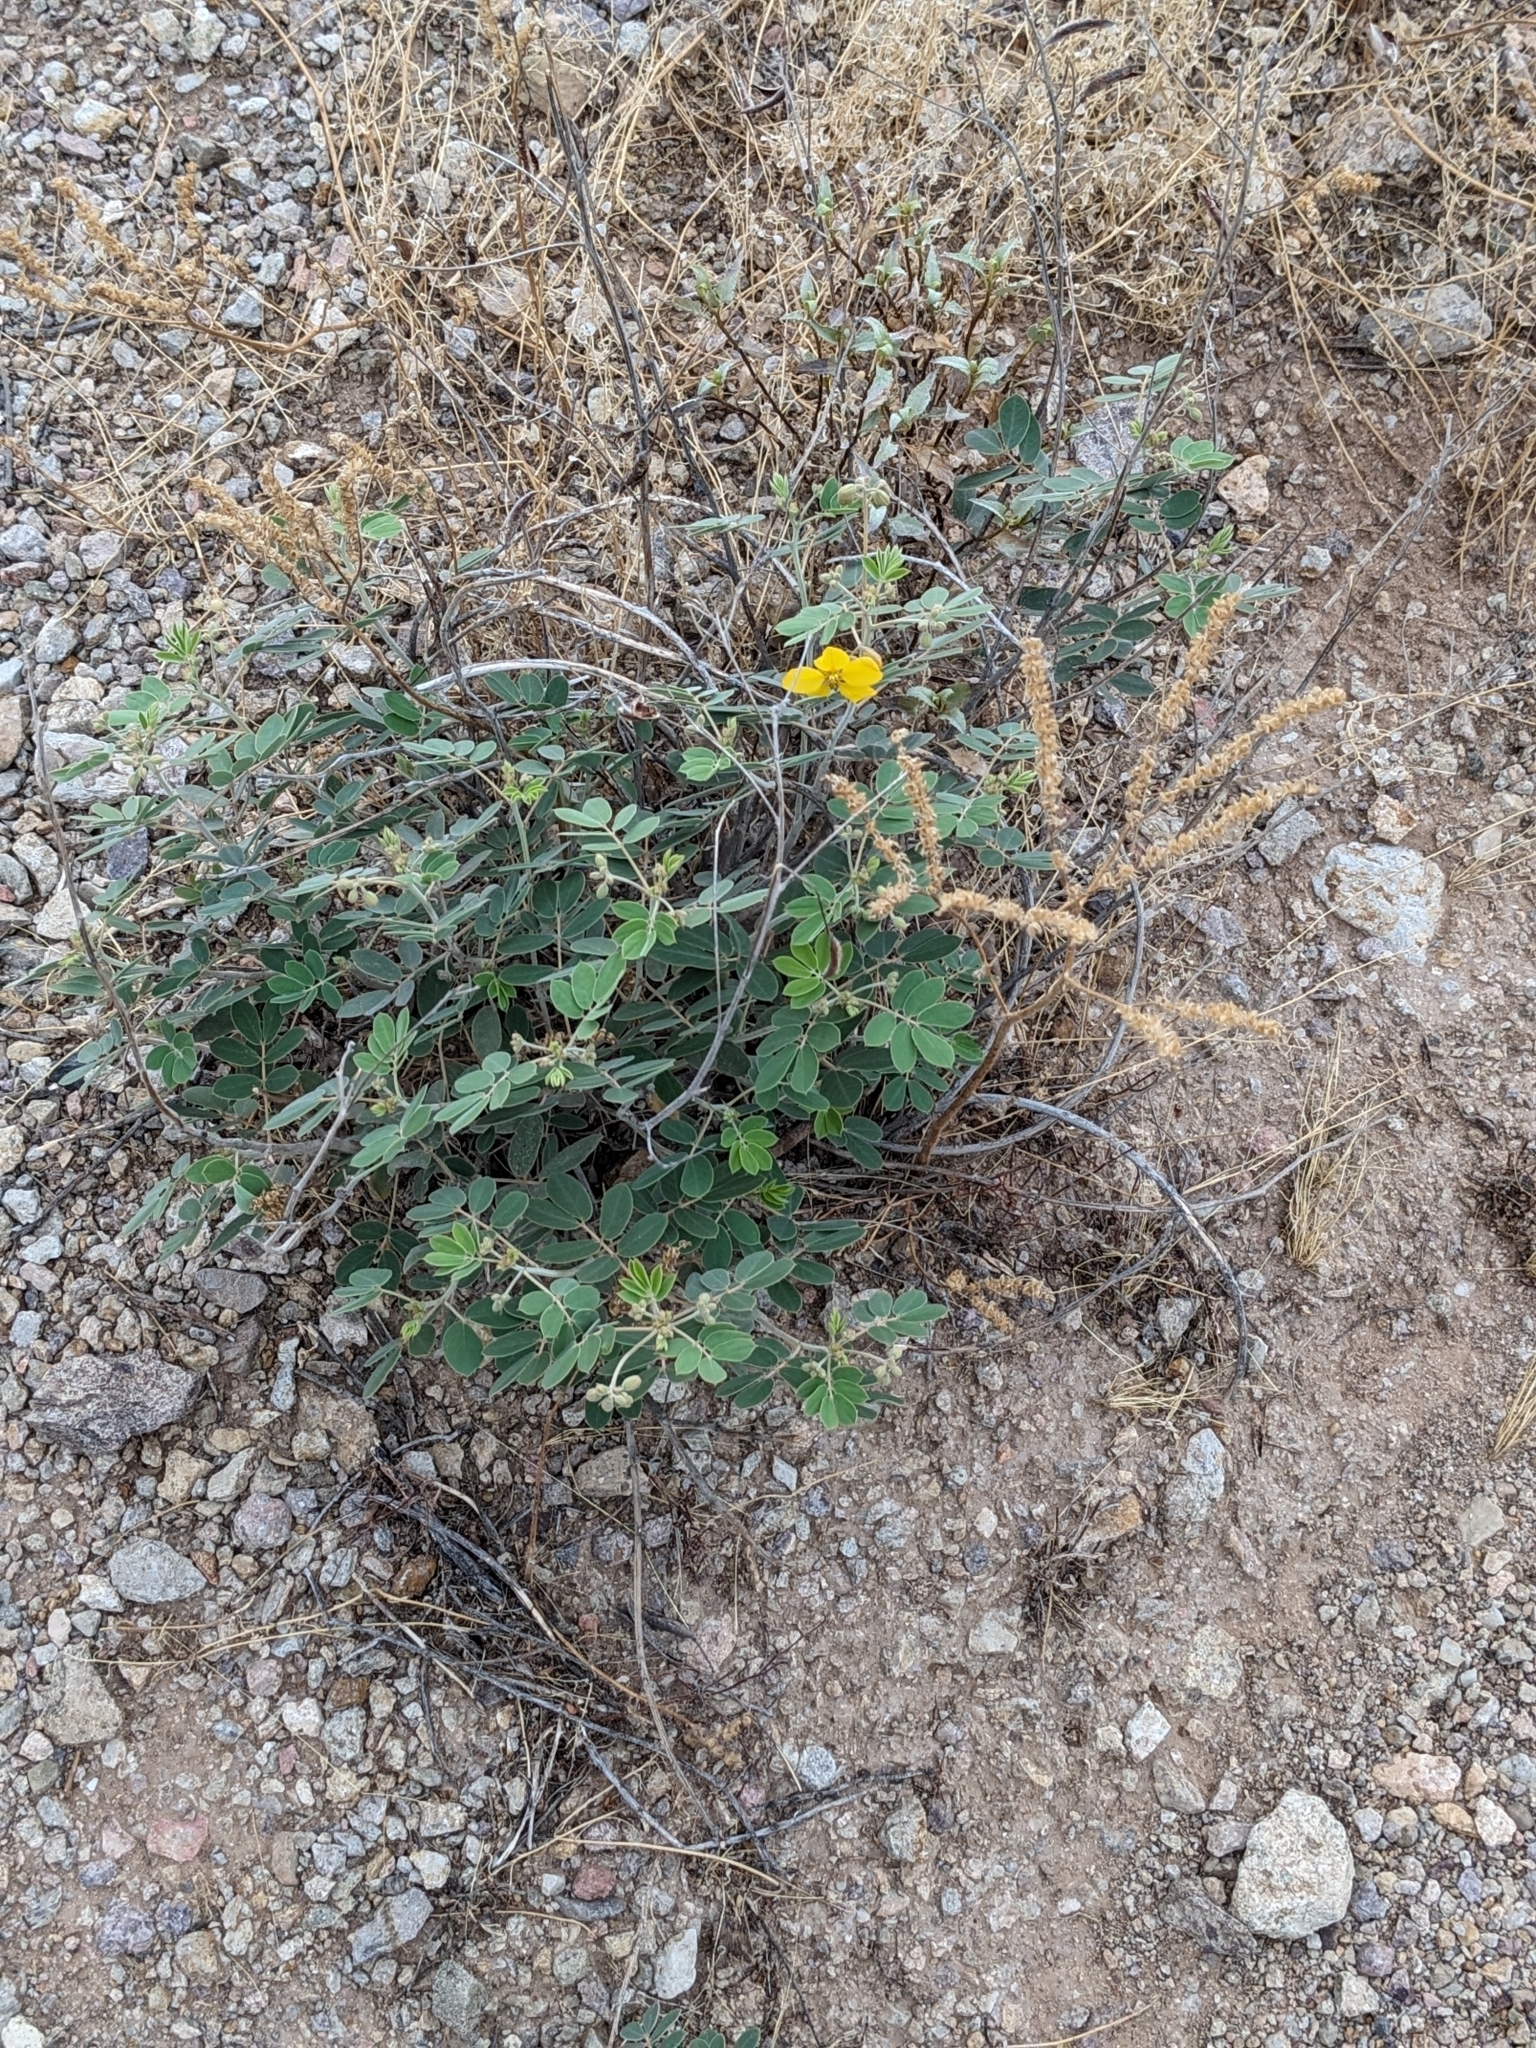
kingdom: Plantae
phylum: Tracheophyta
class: Magnoliopsida
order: Fabales
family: Fabaceae
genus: Senna
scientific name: Senna covesii
